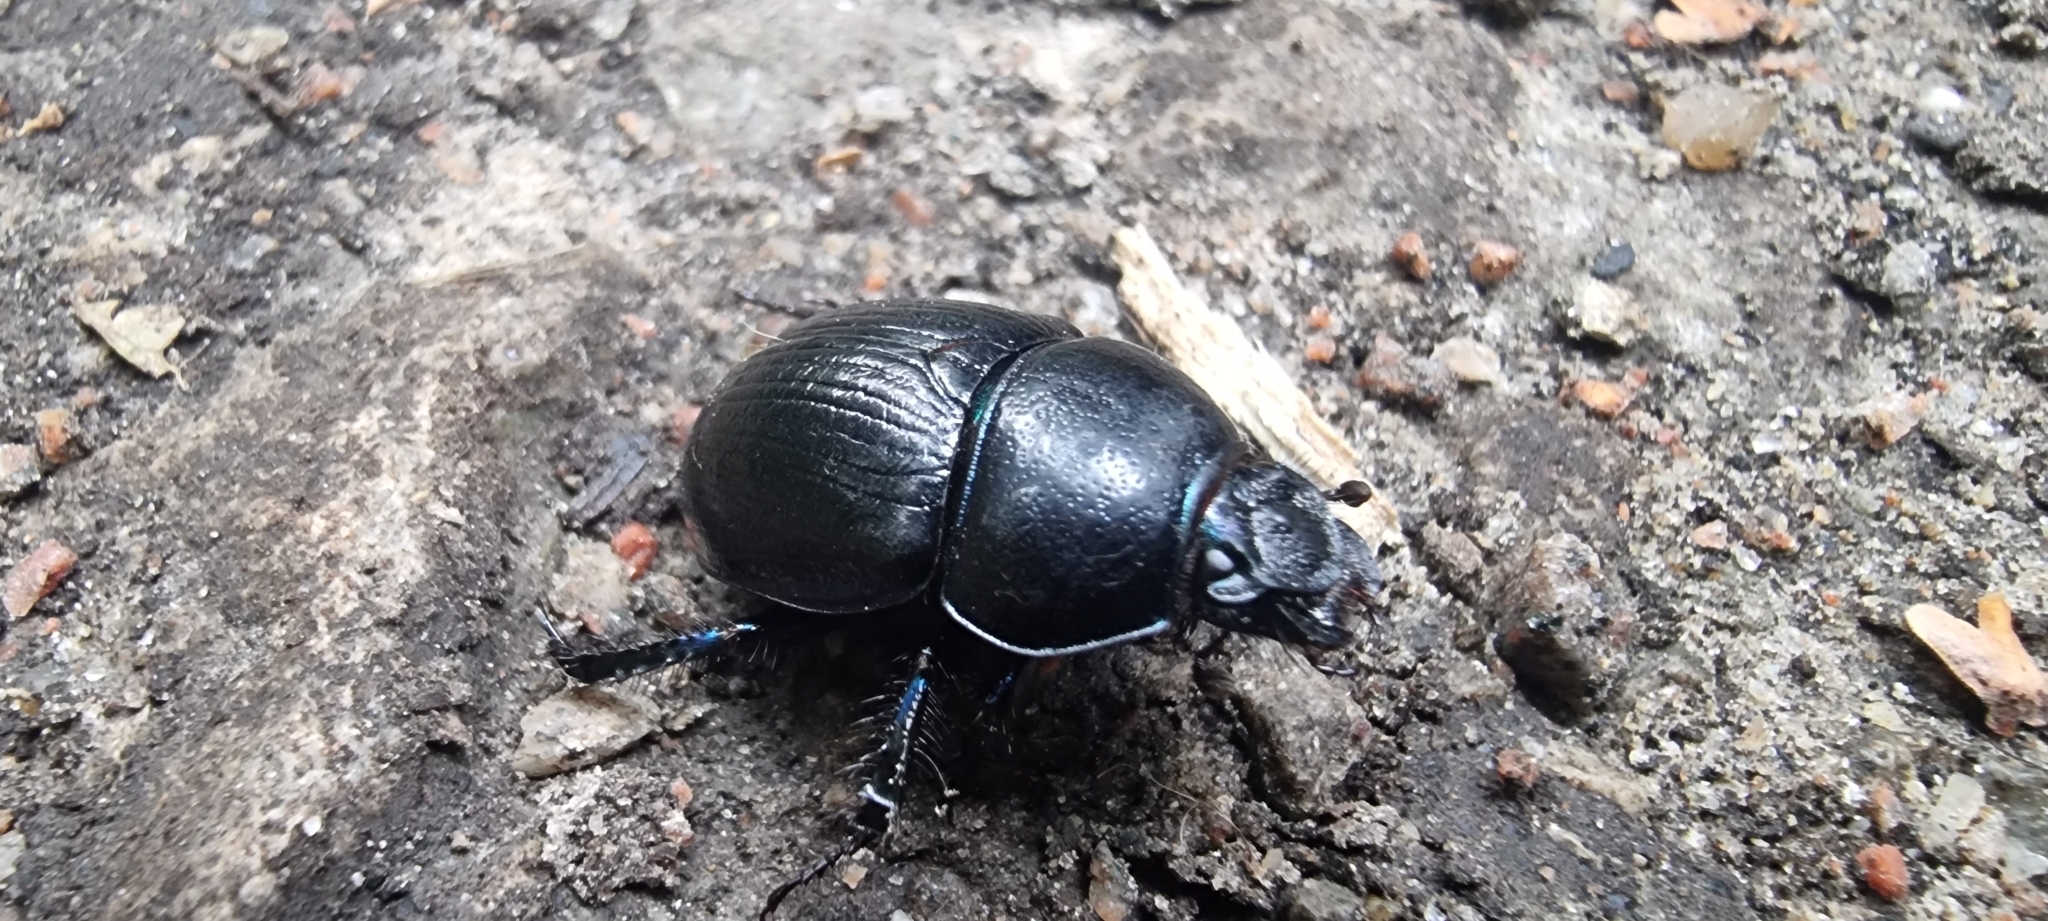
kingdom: Animalia
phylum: Arthropoda
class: Insecta
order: Coleoptera
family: Geotrupidae
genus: Anoplotrupes
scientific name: Anoplotrupes stercorosus
